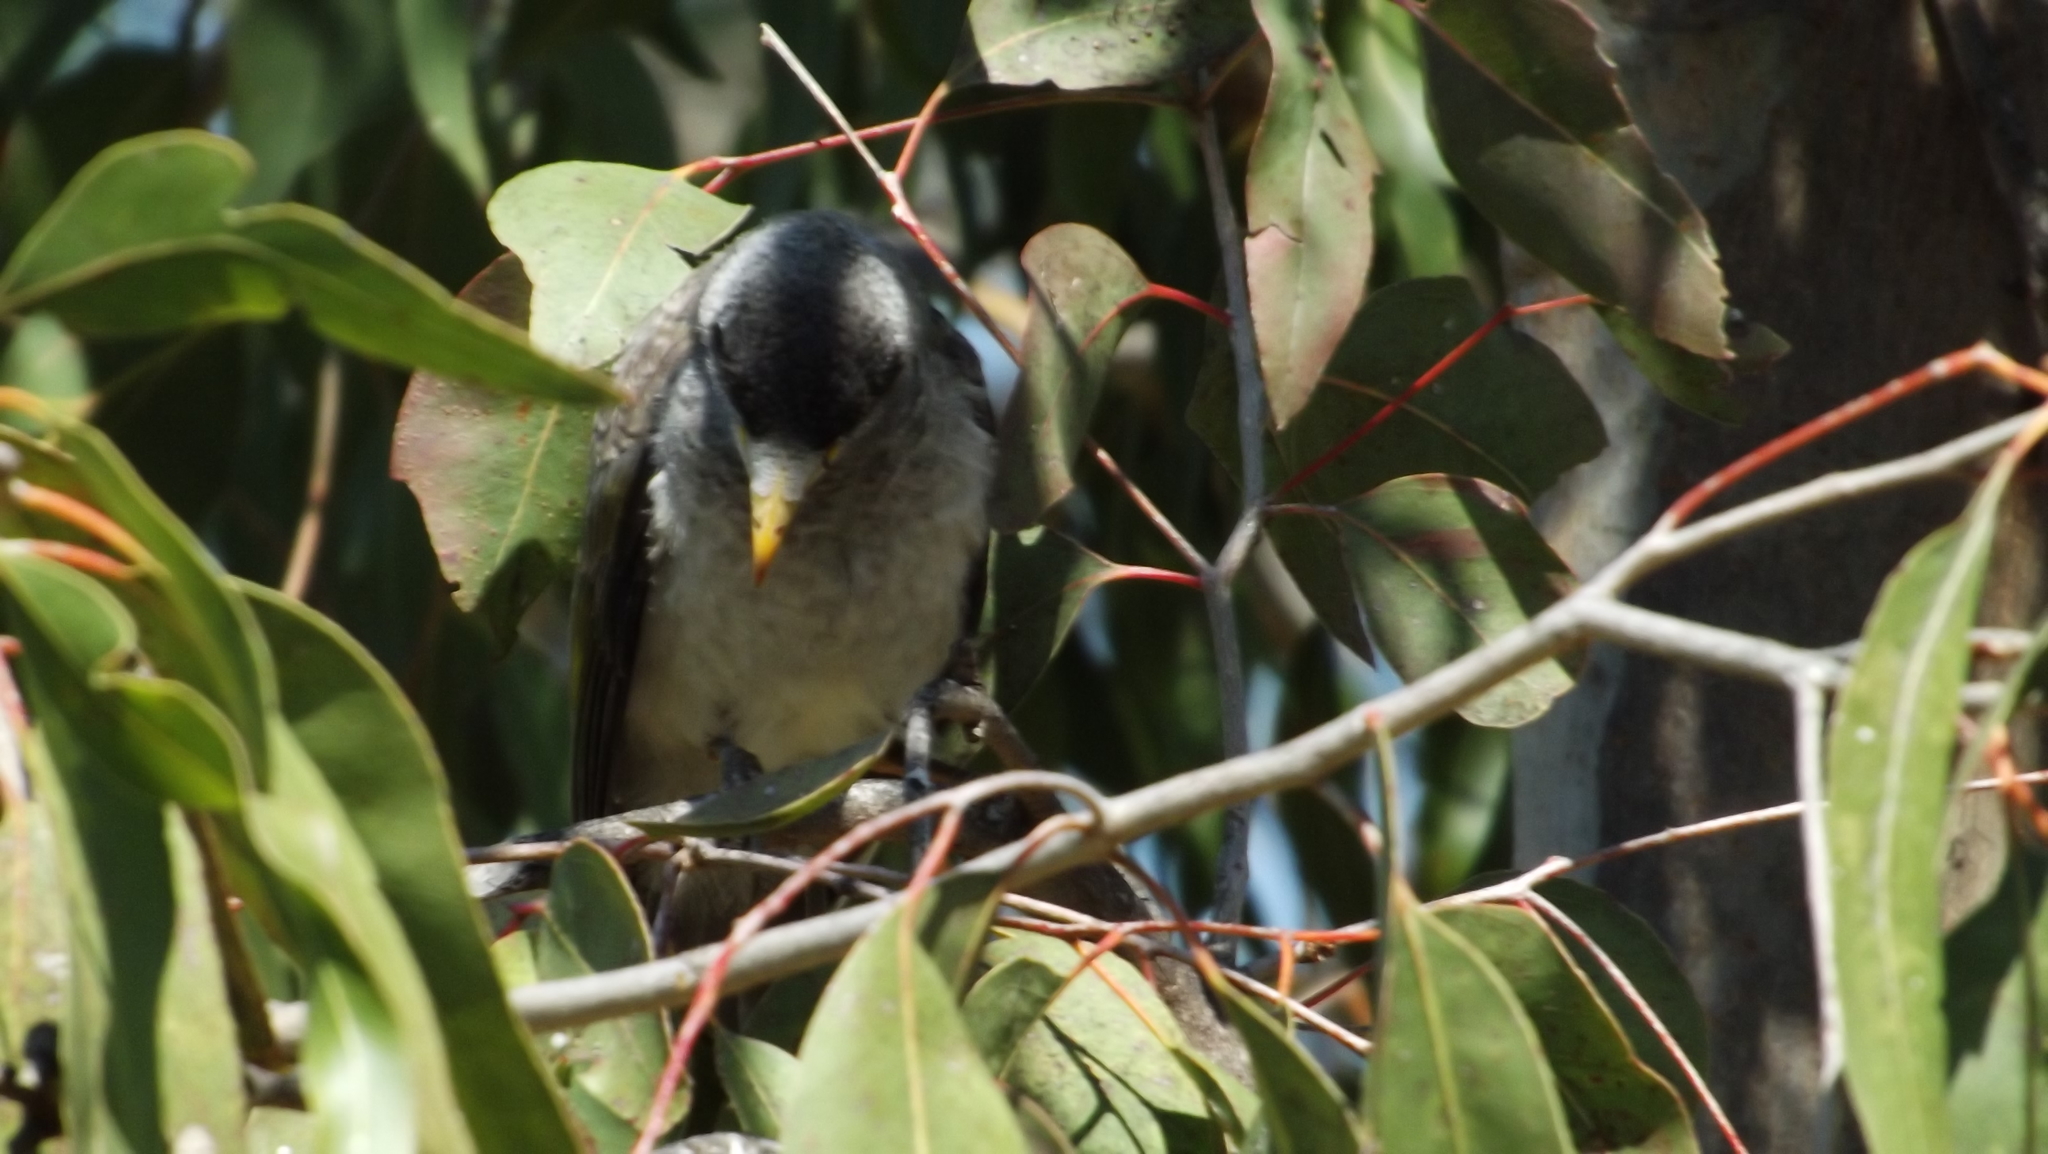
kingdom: Animalia
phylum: Chordata
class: Aves
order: Passeriformes
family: Meliphagidae
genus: Manorina
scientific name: Manorina melanocephala
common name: Noisy miner
